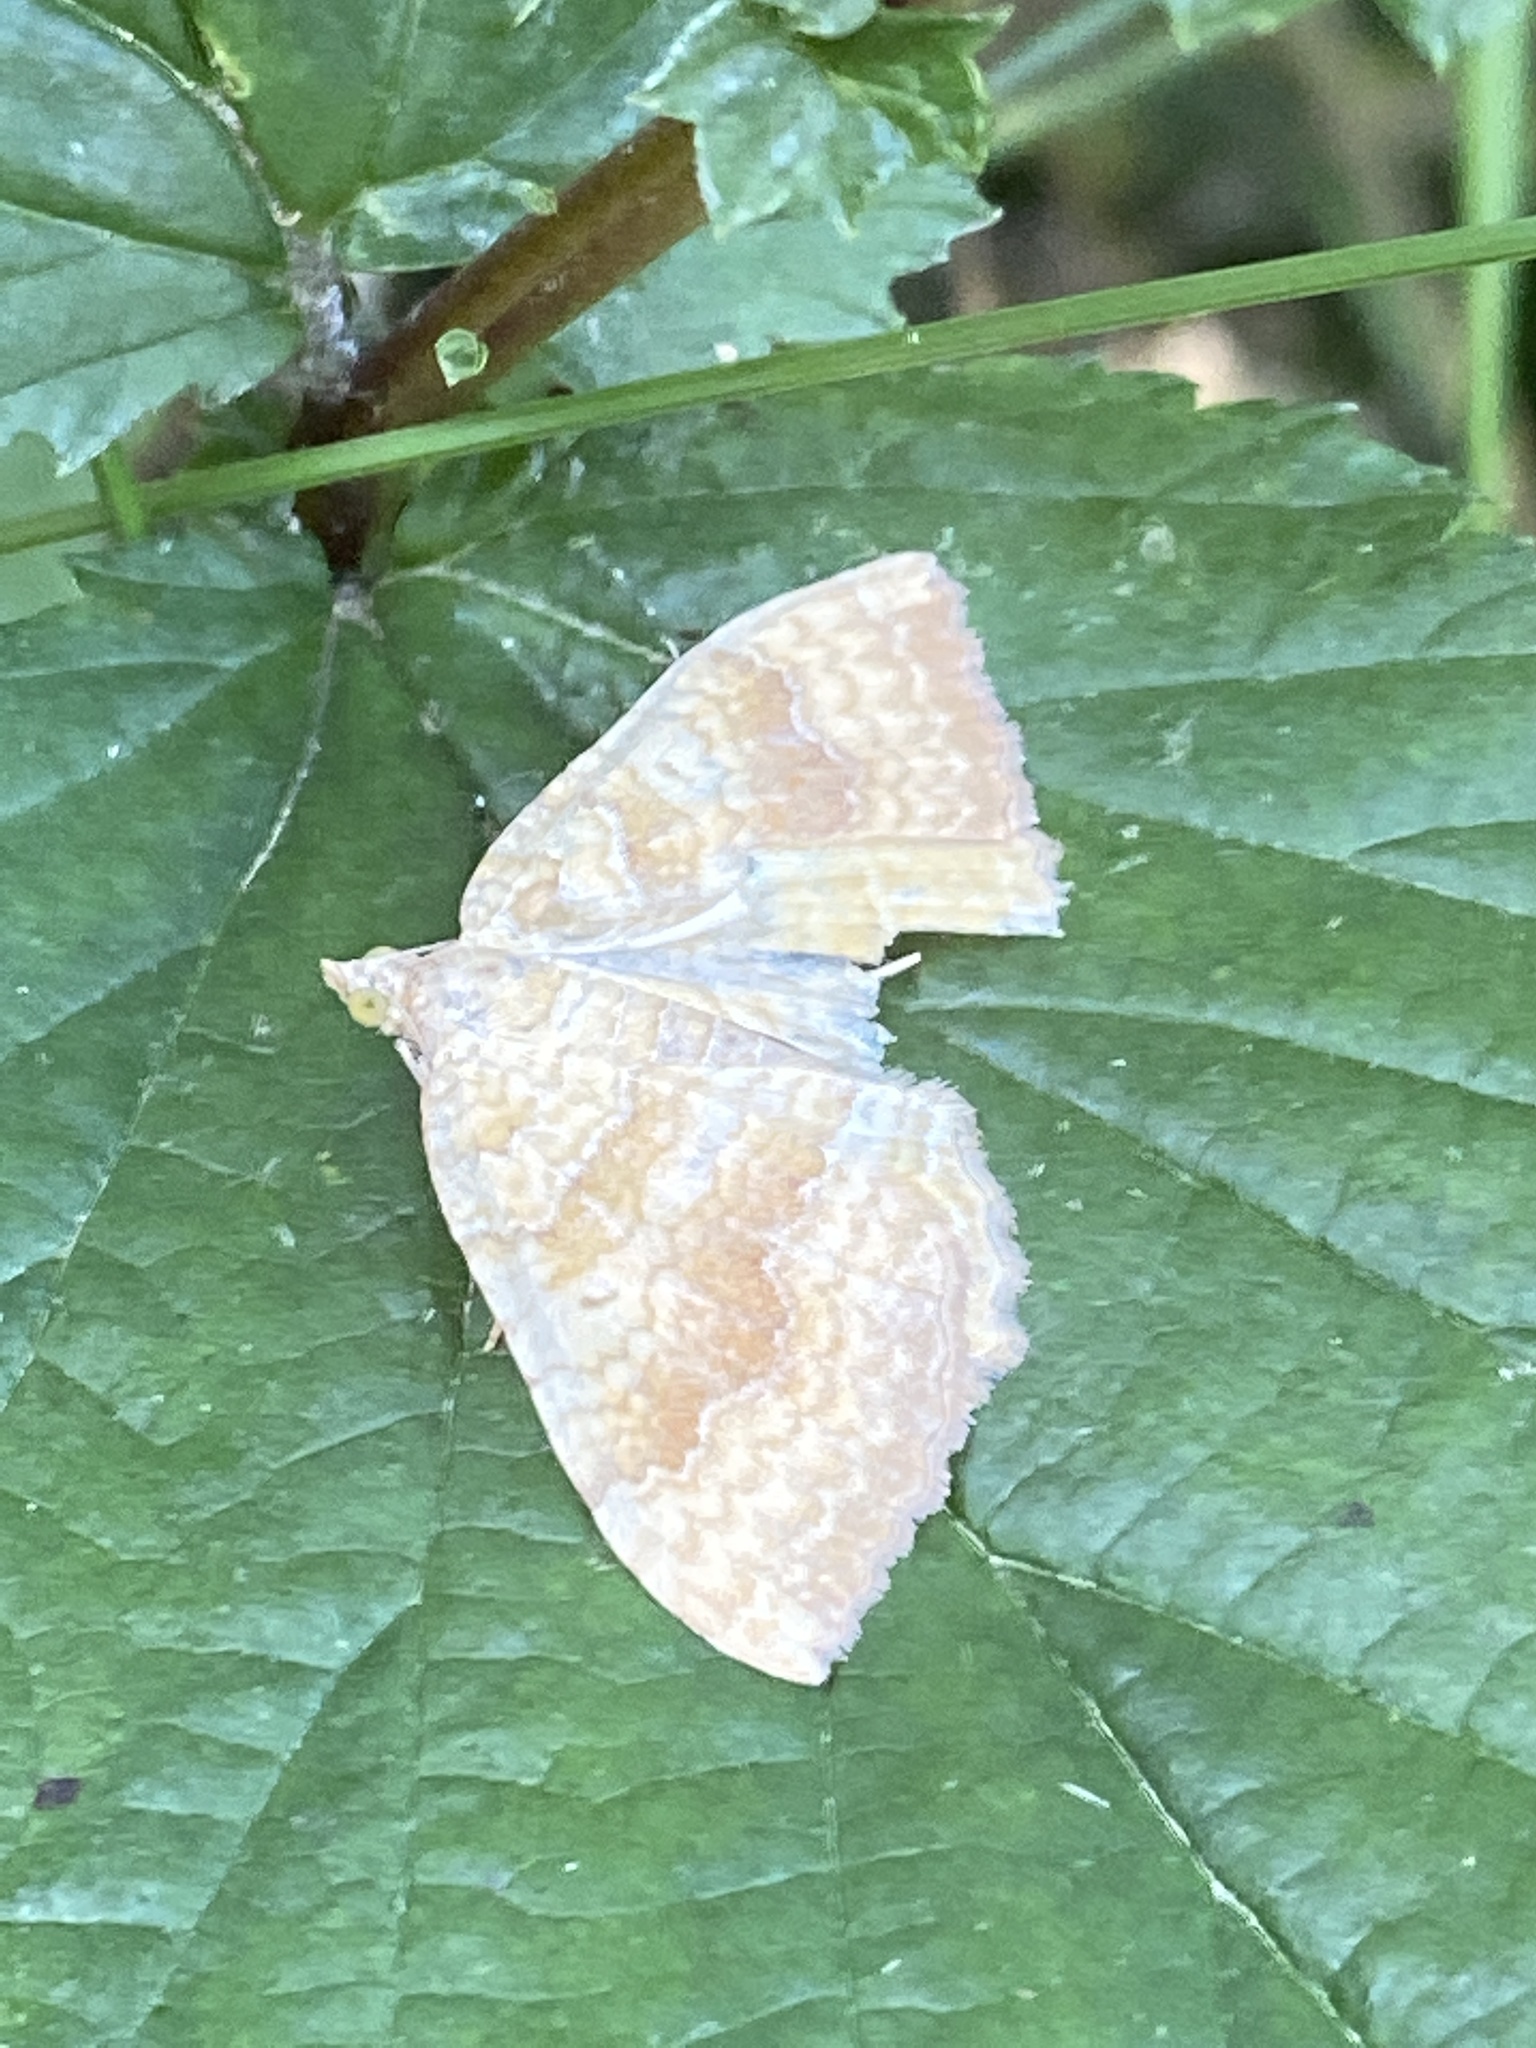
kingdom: Animalia
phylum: Arthropoda
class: Insecta
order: Lepidoptera
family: Geometridae
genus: Camptogramma
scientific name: Camptogramma bilineata
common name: Yellow shell
